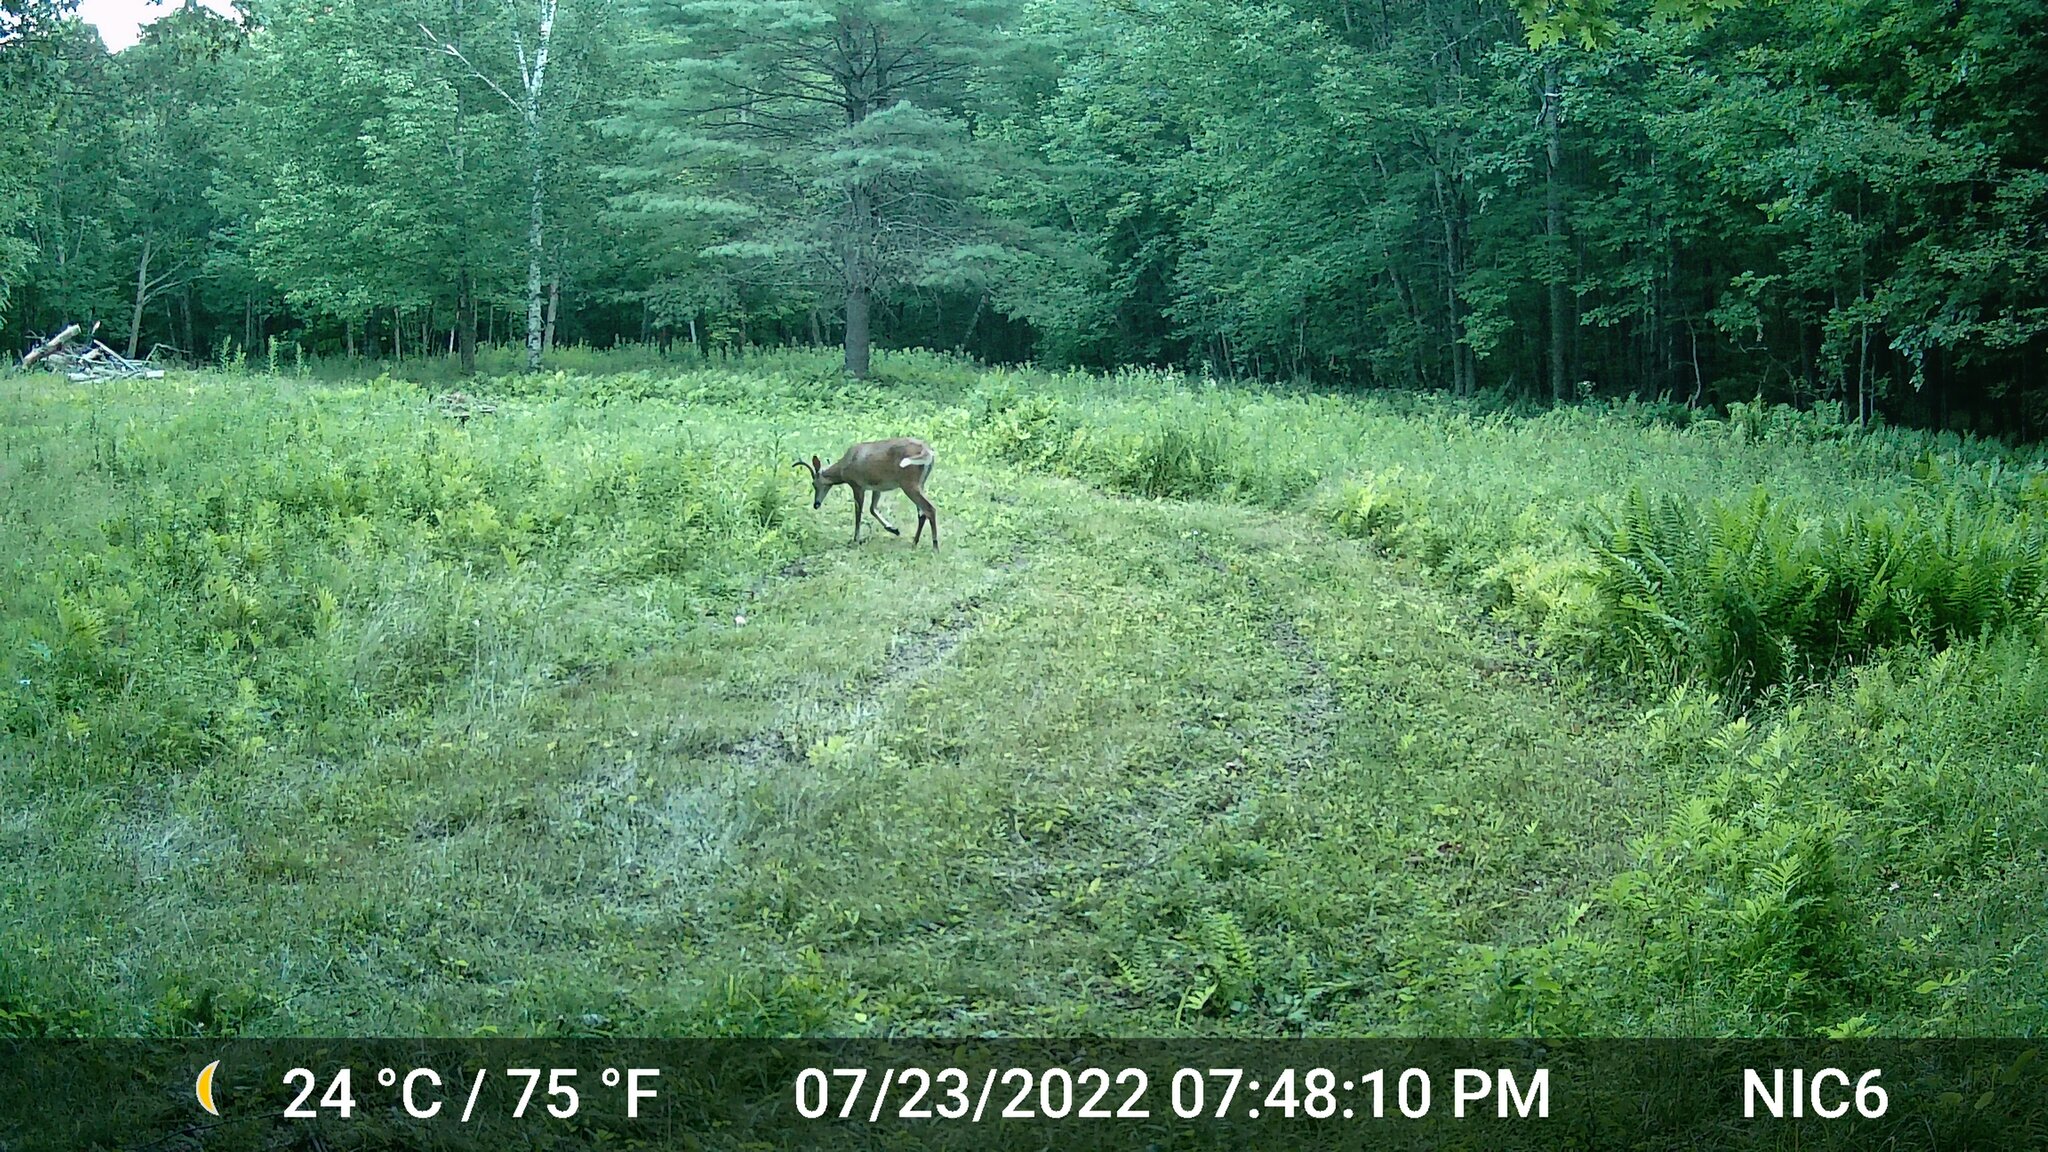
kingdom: Animalia
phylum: Chordata
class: Mammalia
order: Artiodactyla
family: Cervidae
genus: Odocoileus
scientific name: Odocoileus virginianus
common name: White-tailed deer
